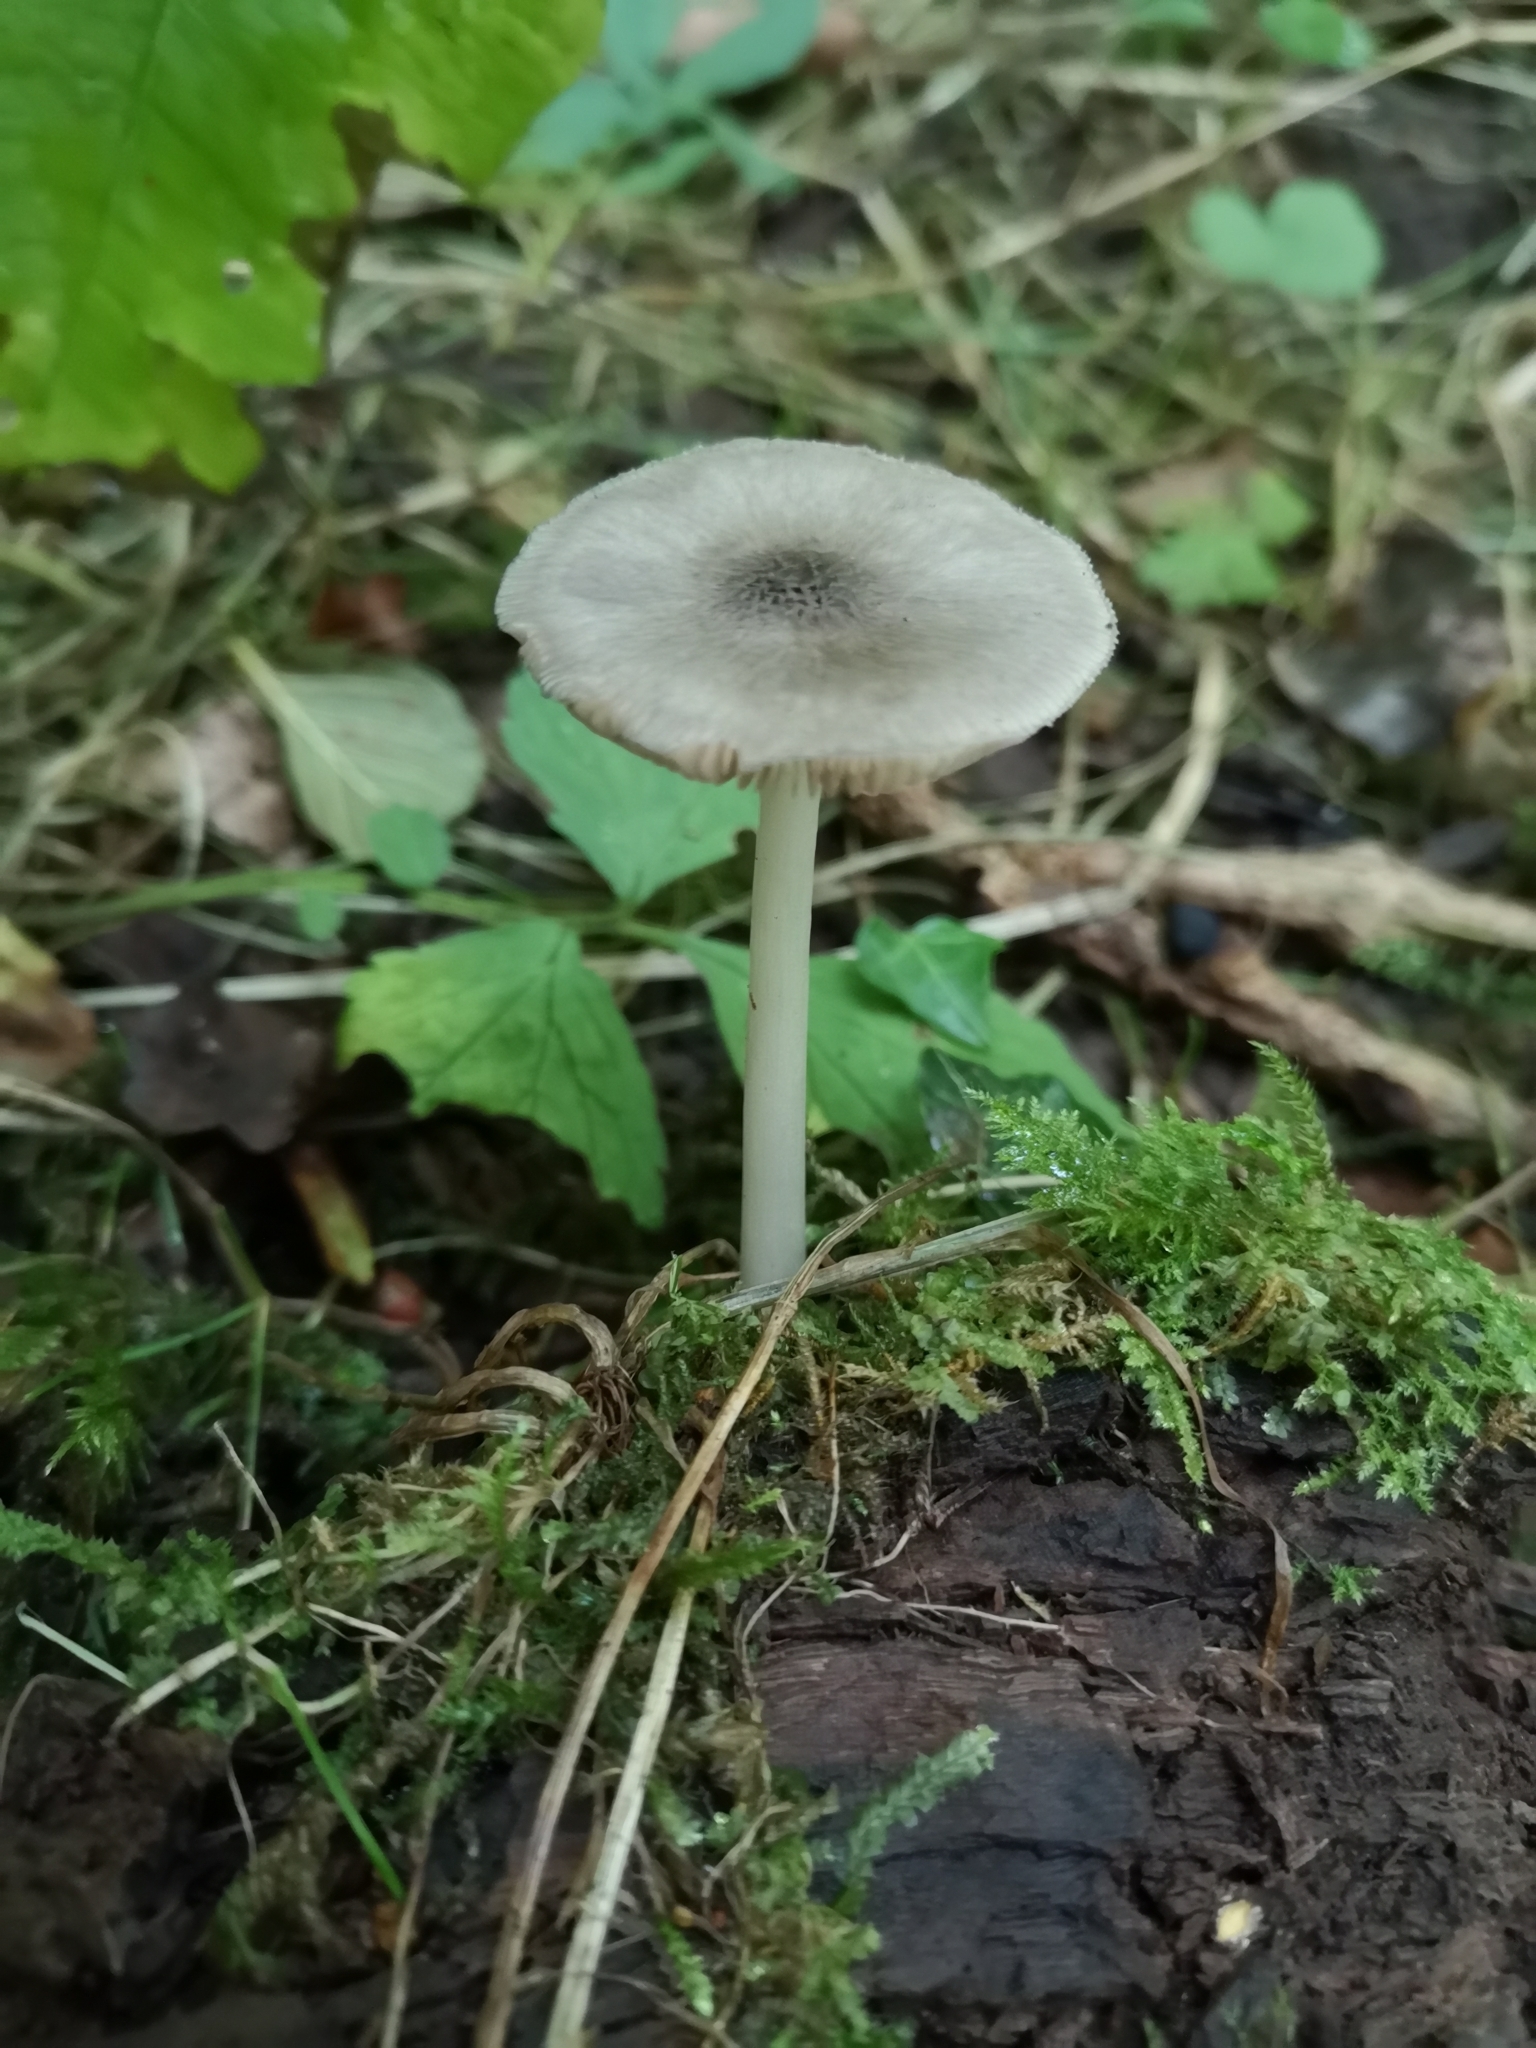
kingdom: Fungi
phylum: Basidiomycota
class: Agaricomycetes
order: Agaricales
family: Pluteaceae
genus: Pluteus
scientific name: Pluteus salicinus
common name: Willow shield
